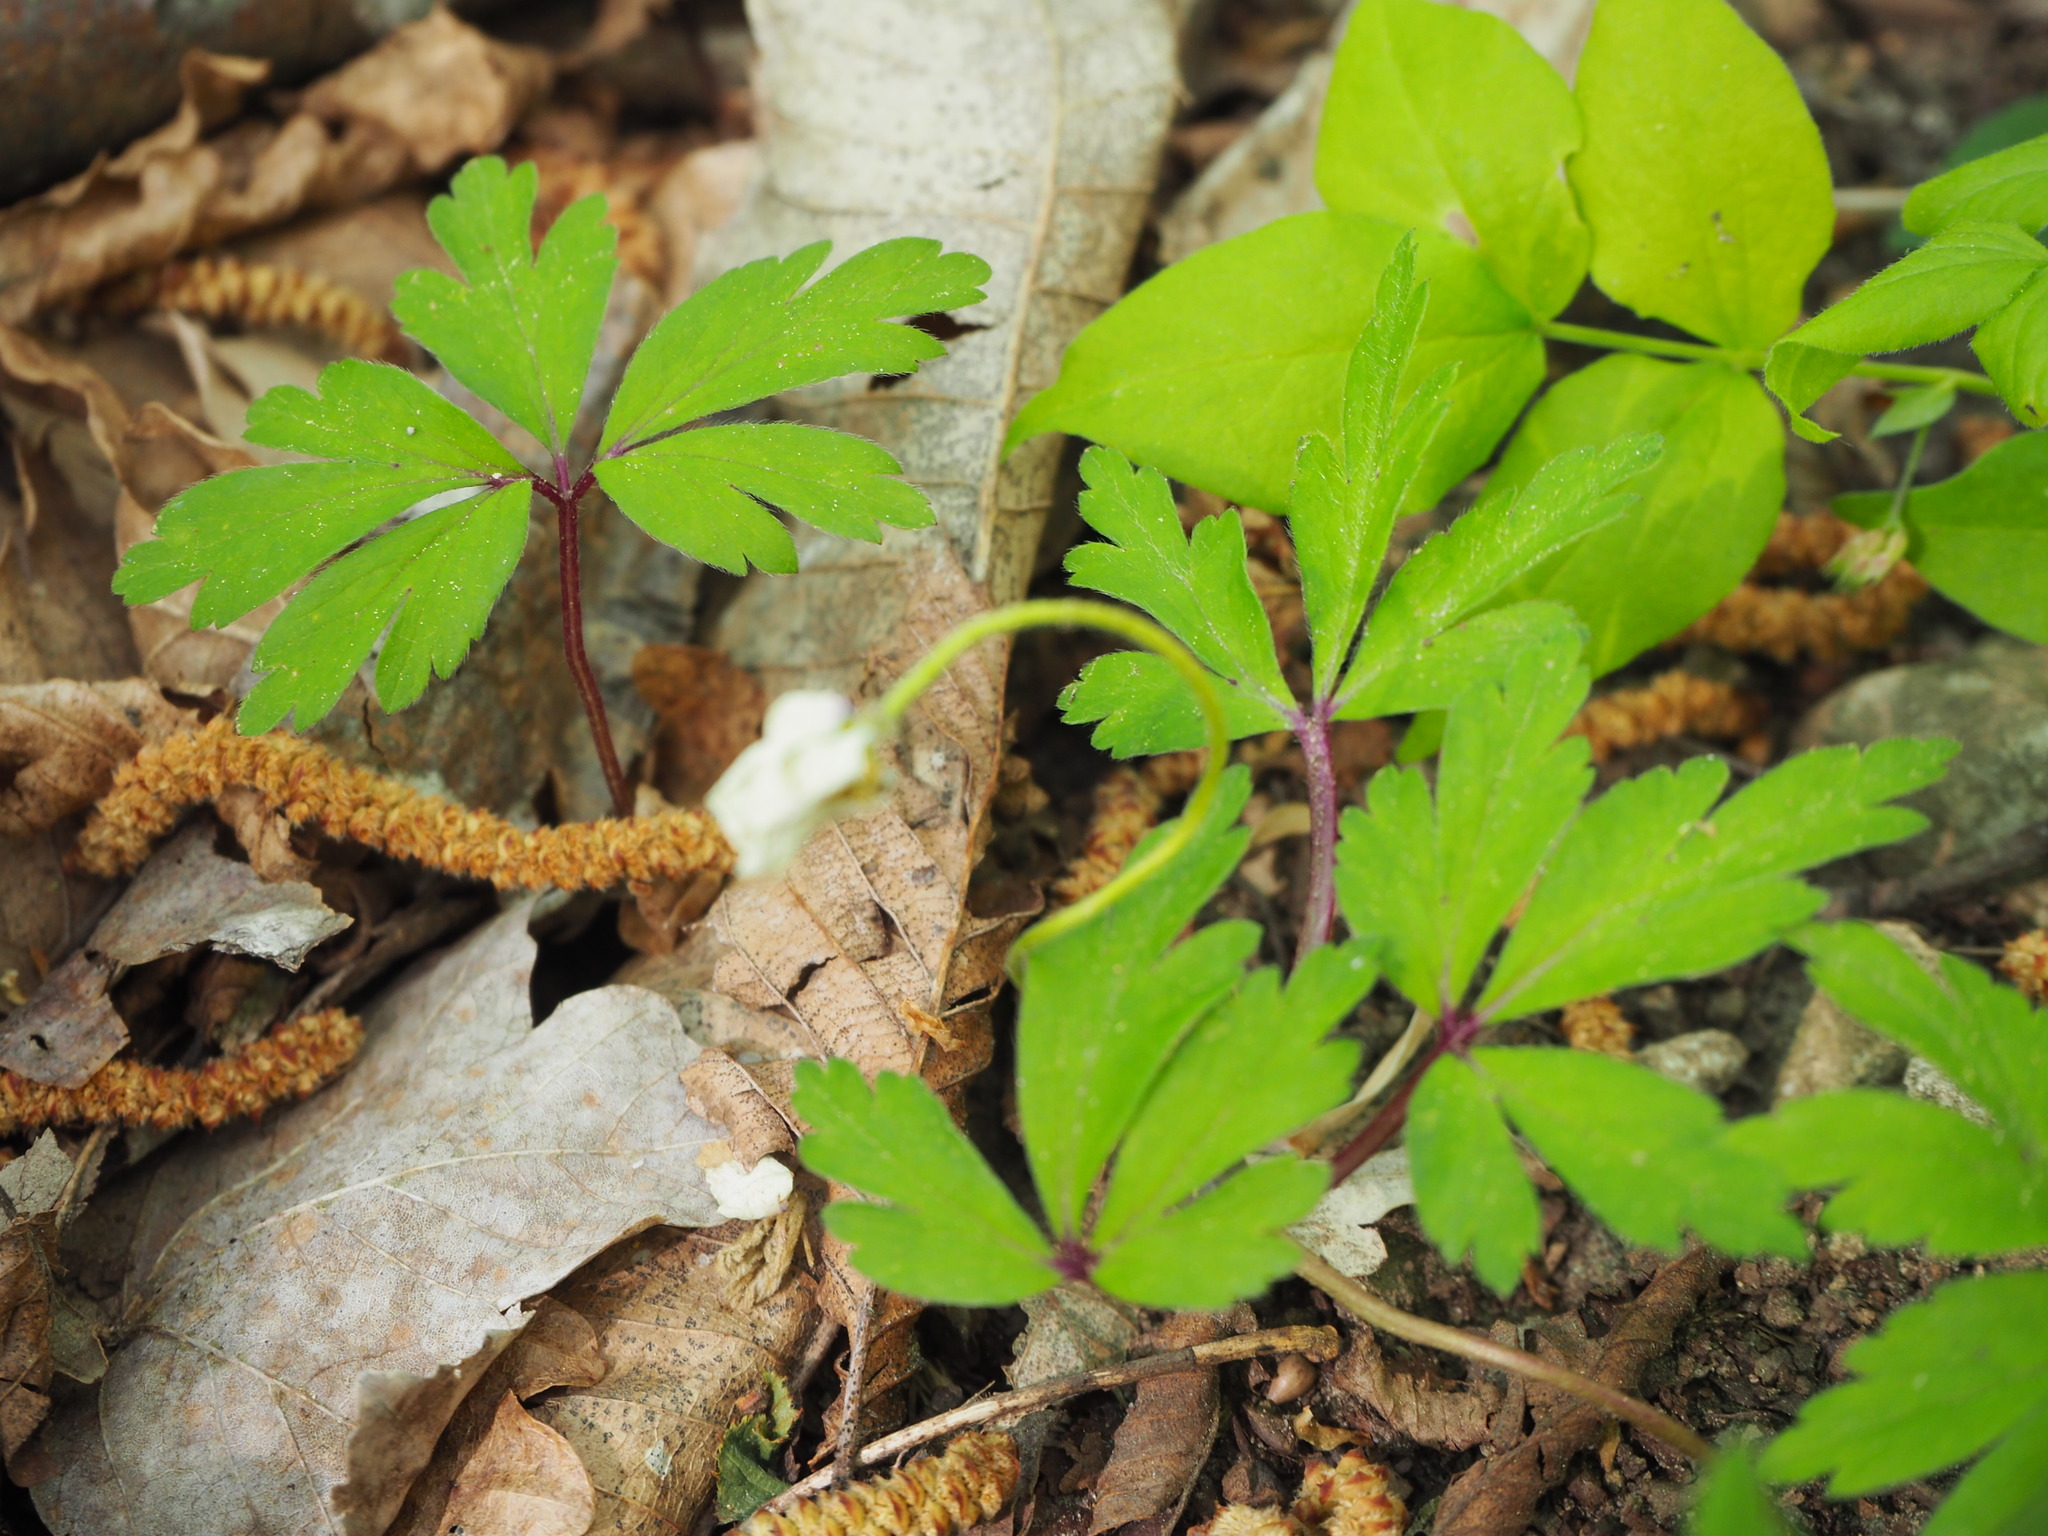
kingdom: Plantae
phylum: Tracheophyta
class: Magnoliopsida
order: Ranunculales
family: Ranunculaceae
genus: Anemone
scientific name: Anemone nemorosa
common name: Wood anemone
